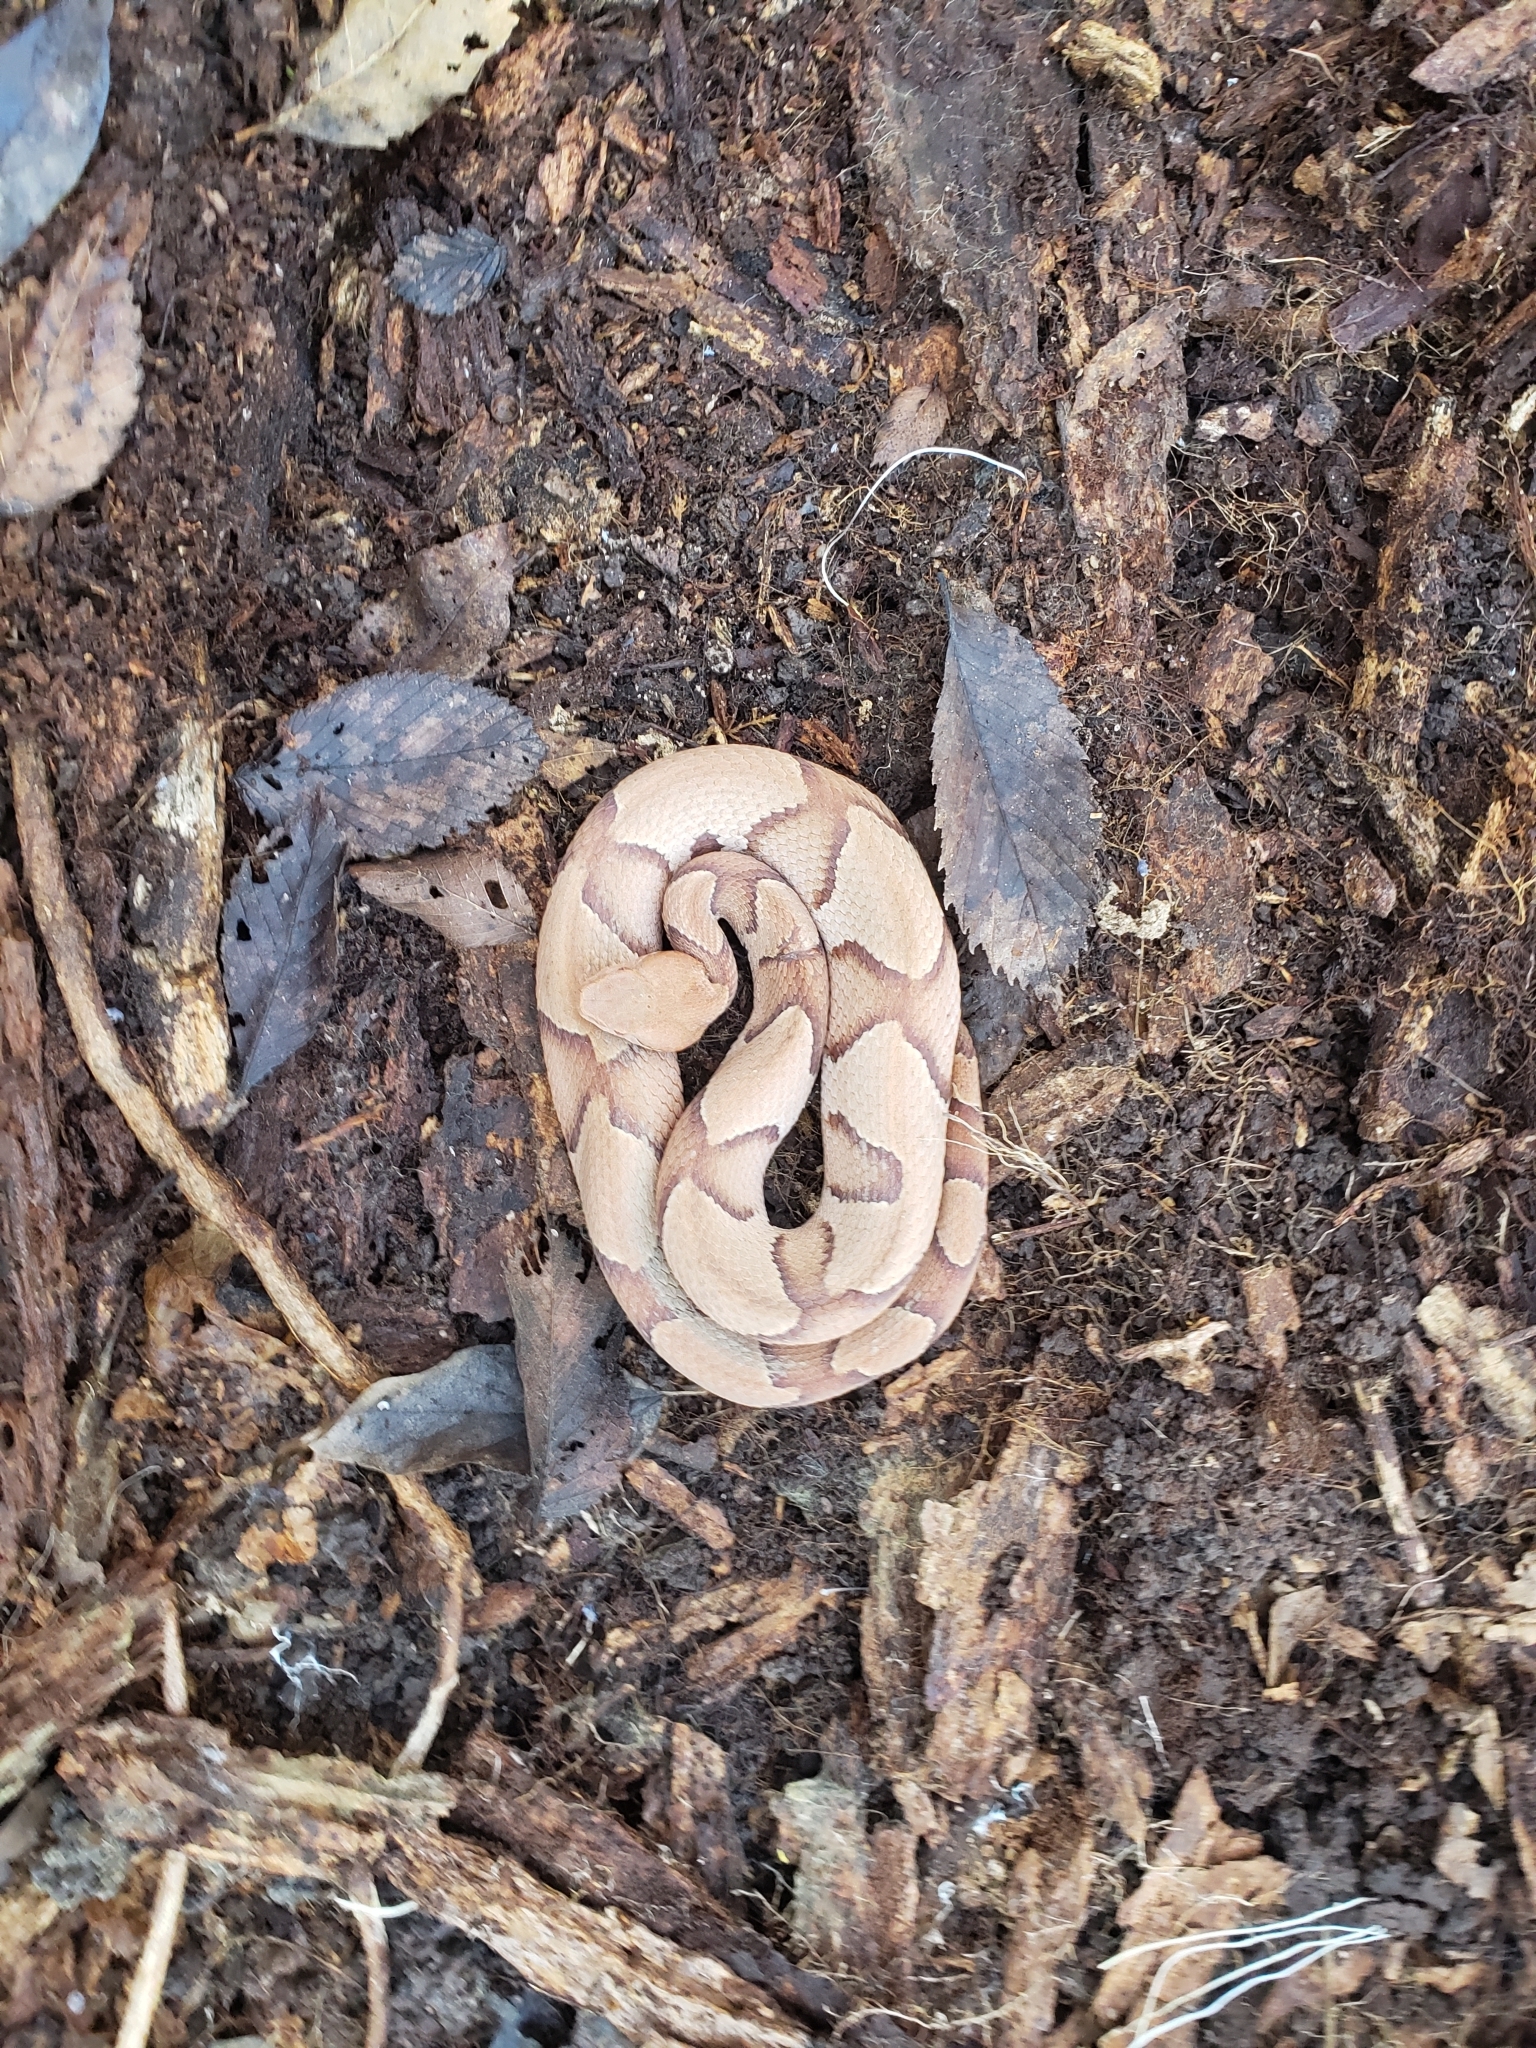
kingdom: Animalia
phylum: Chordata
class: Squamata
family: Viperidae
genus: Agkistrodon
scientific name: Agkistrodon contortrix
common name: Northern copperhead
